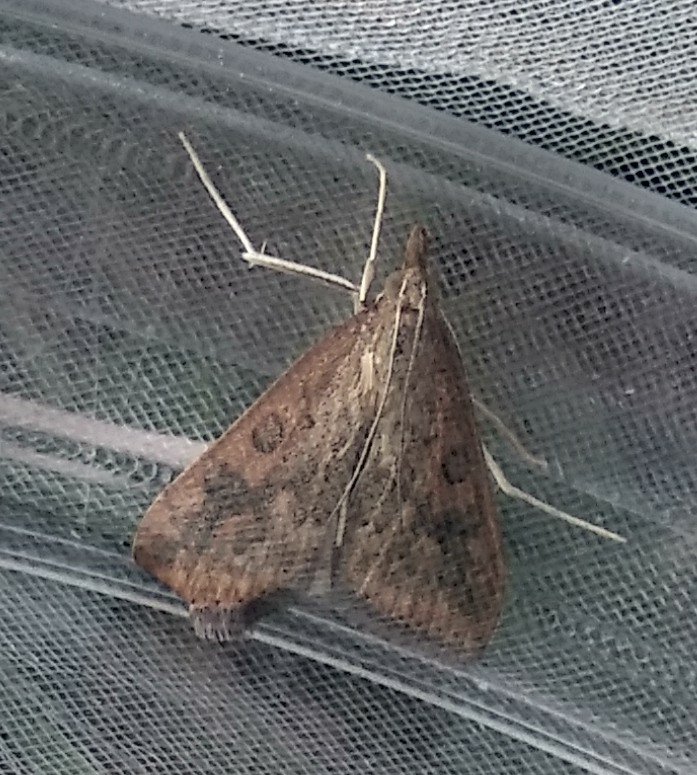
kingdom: Animalia
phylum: Arthropoda
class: Insecta
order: Lepidoptera
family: Crambidae
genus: Udea
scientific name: Udea ferrugalis
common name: Rusty dot
